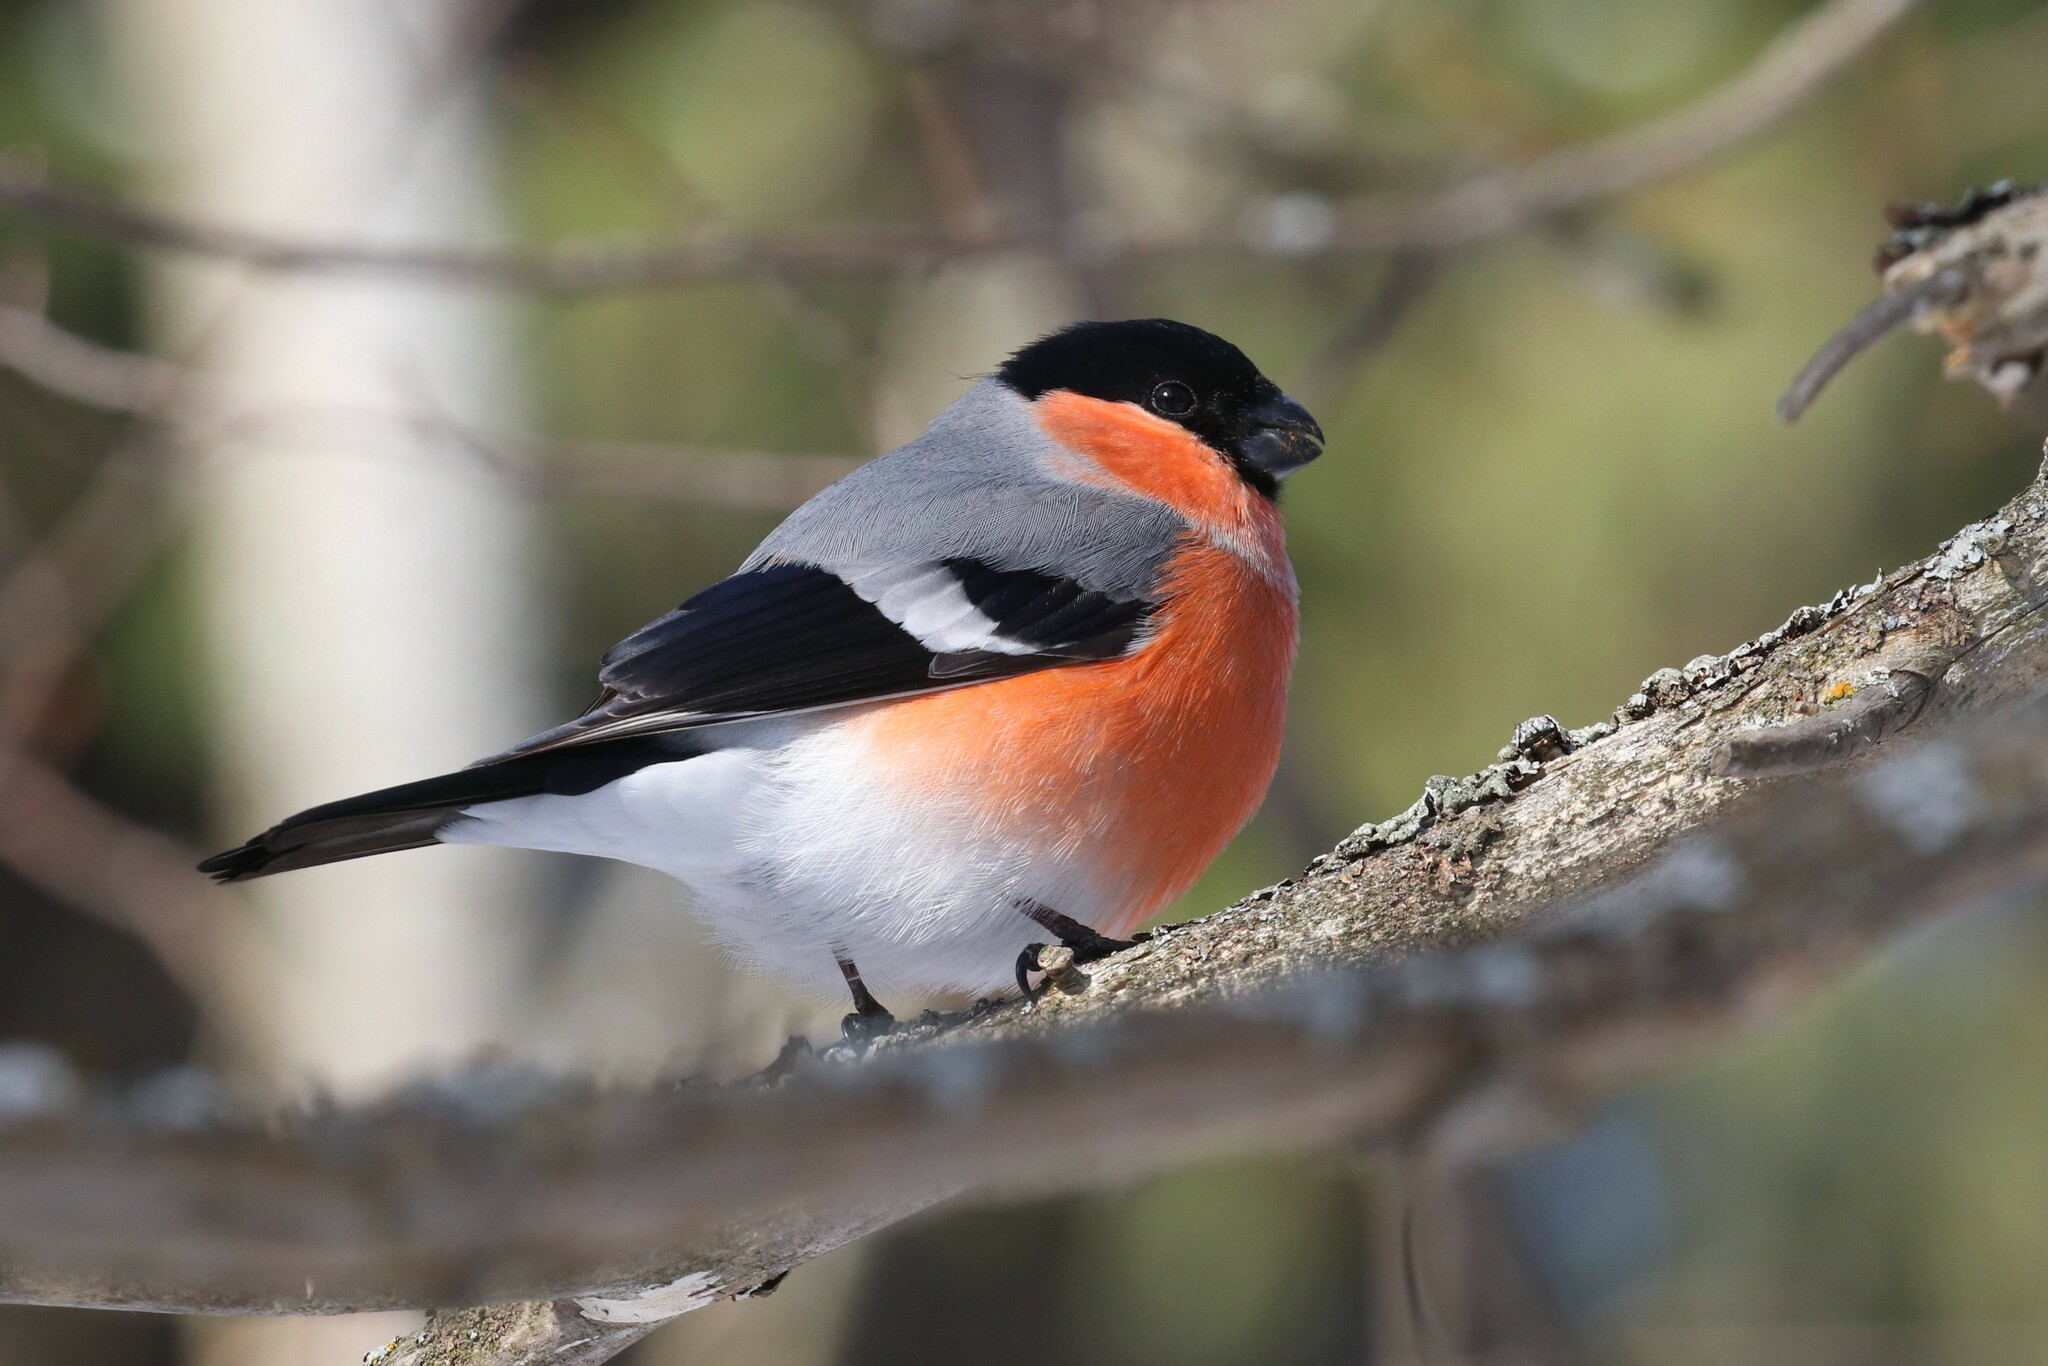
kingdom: Animalia
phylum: Chordata
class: Aves
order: Passeriformes
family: Fringillidae
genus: Pyrrhula
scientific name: Pyrrhula pyrrhula
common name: Eurasian bullfinch
